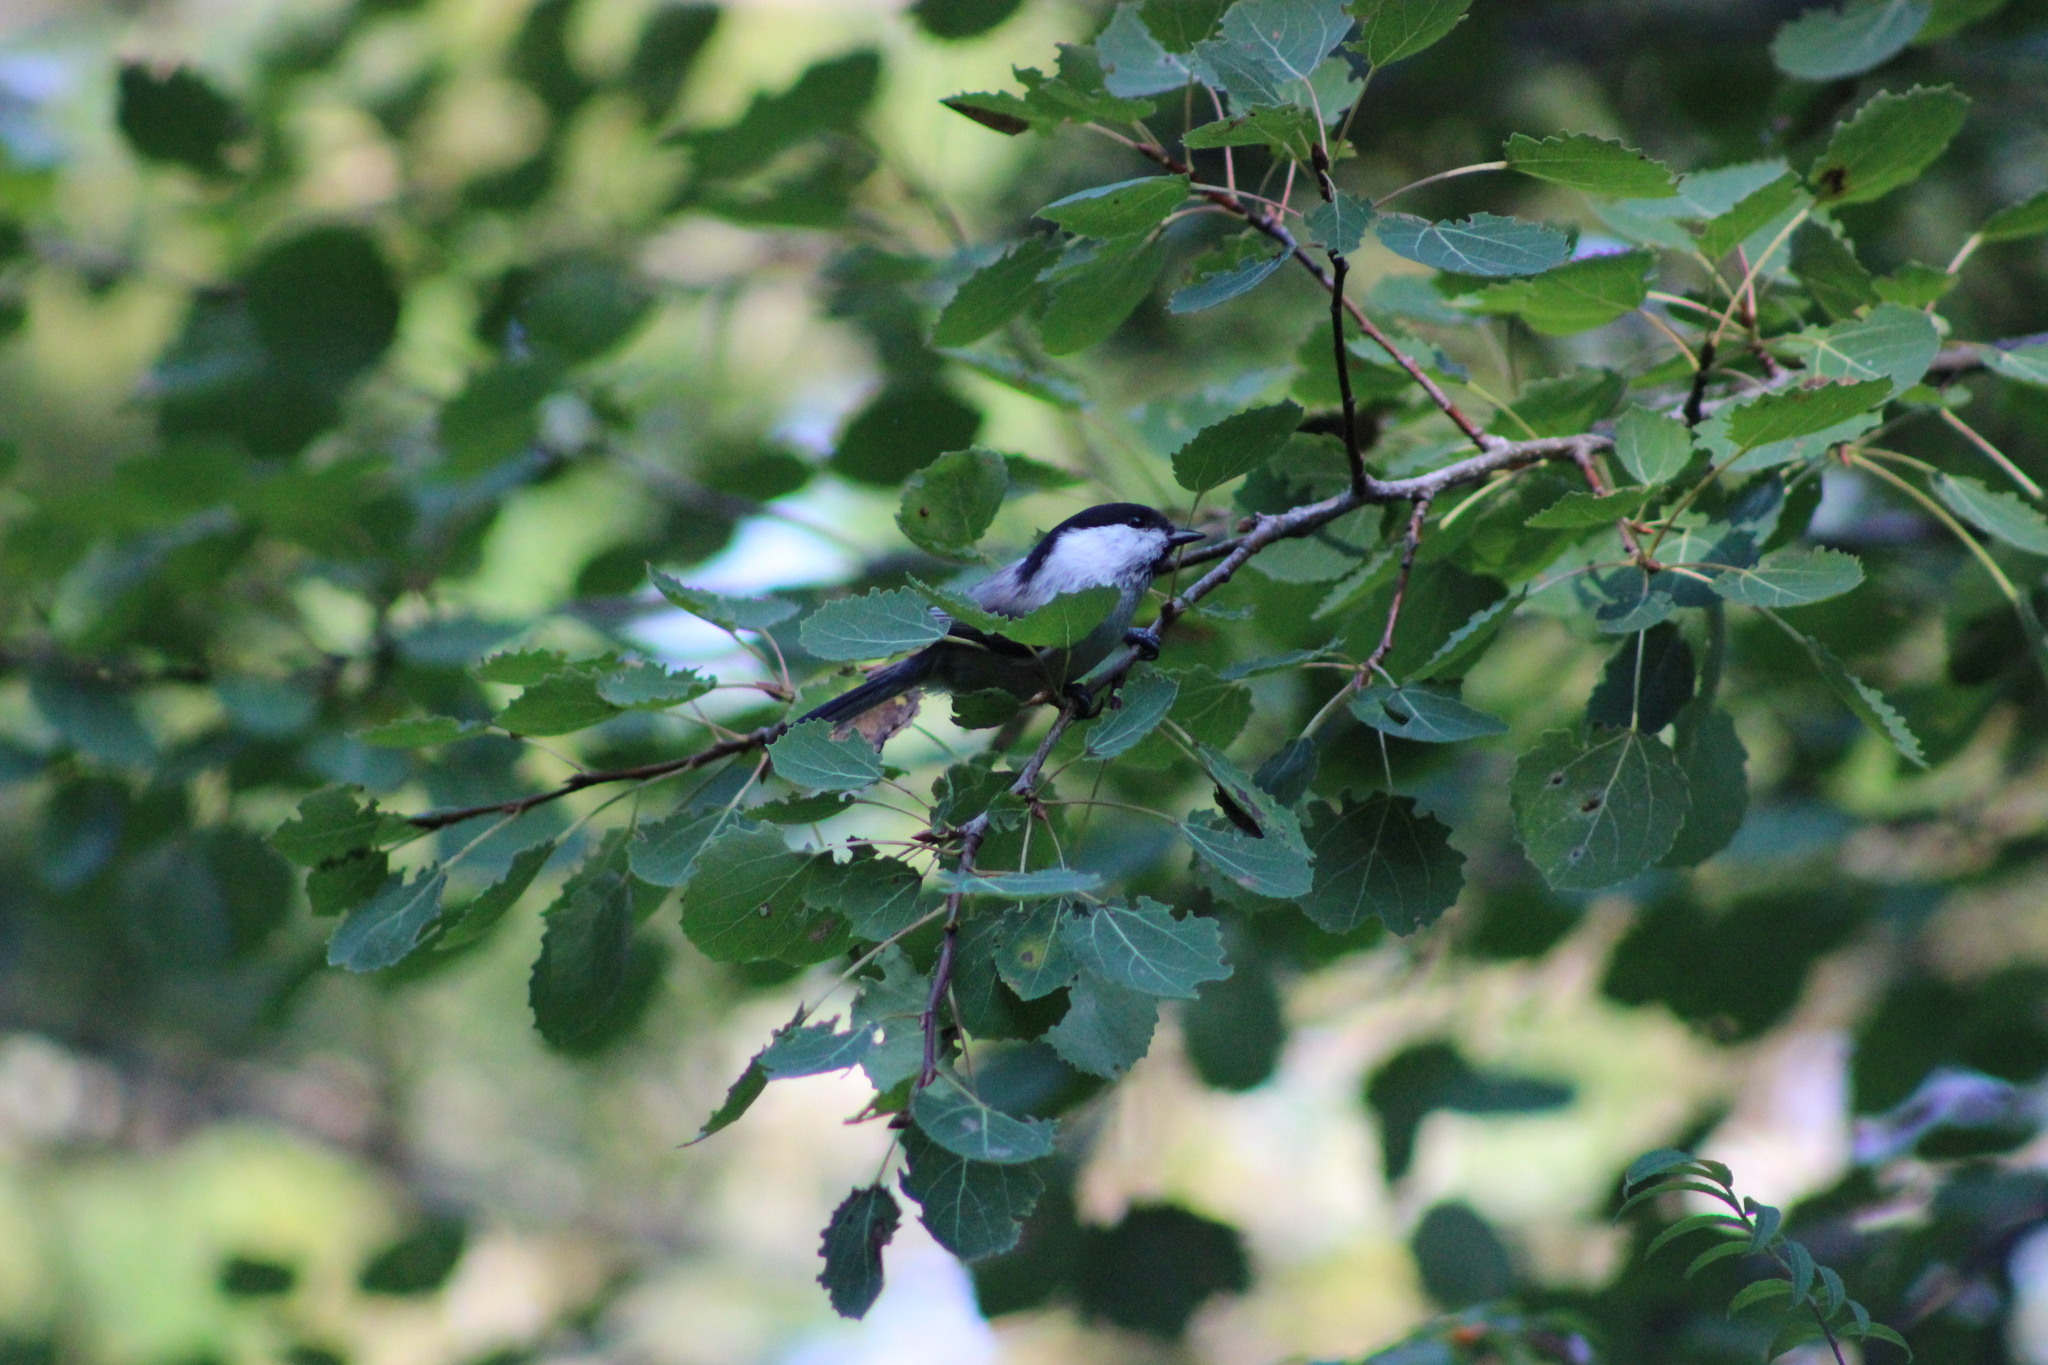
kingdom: Animalia
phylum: Chordata
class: Aves
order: Passeriformes
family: Paridae
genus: Poecile
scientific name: Poecile montanus
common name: Willow tit
